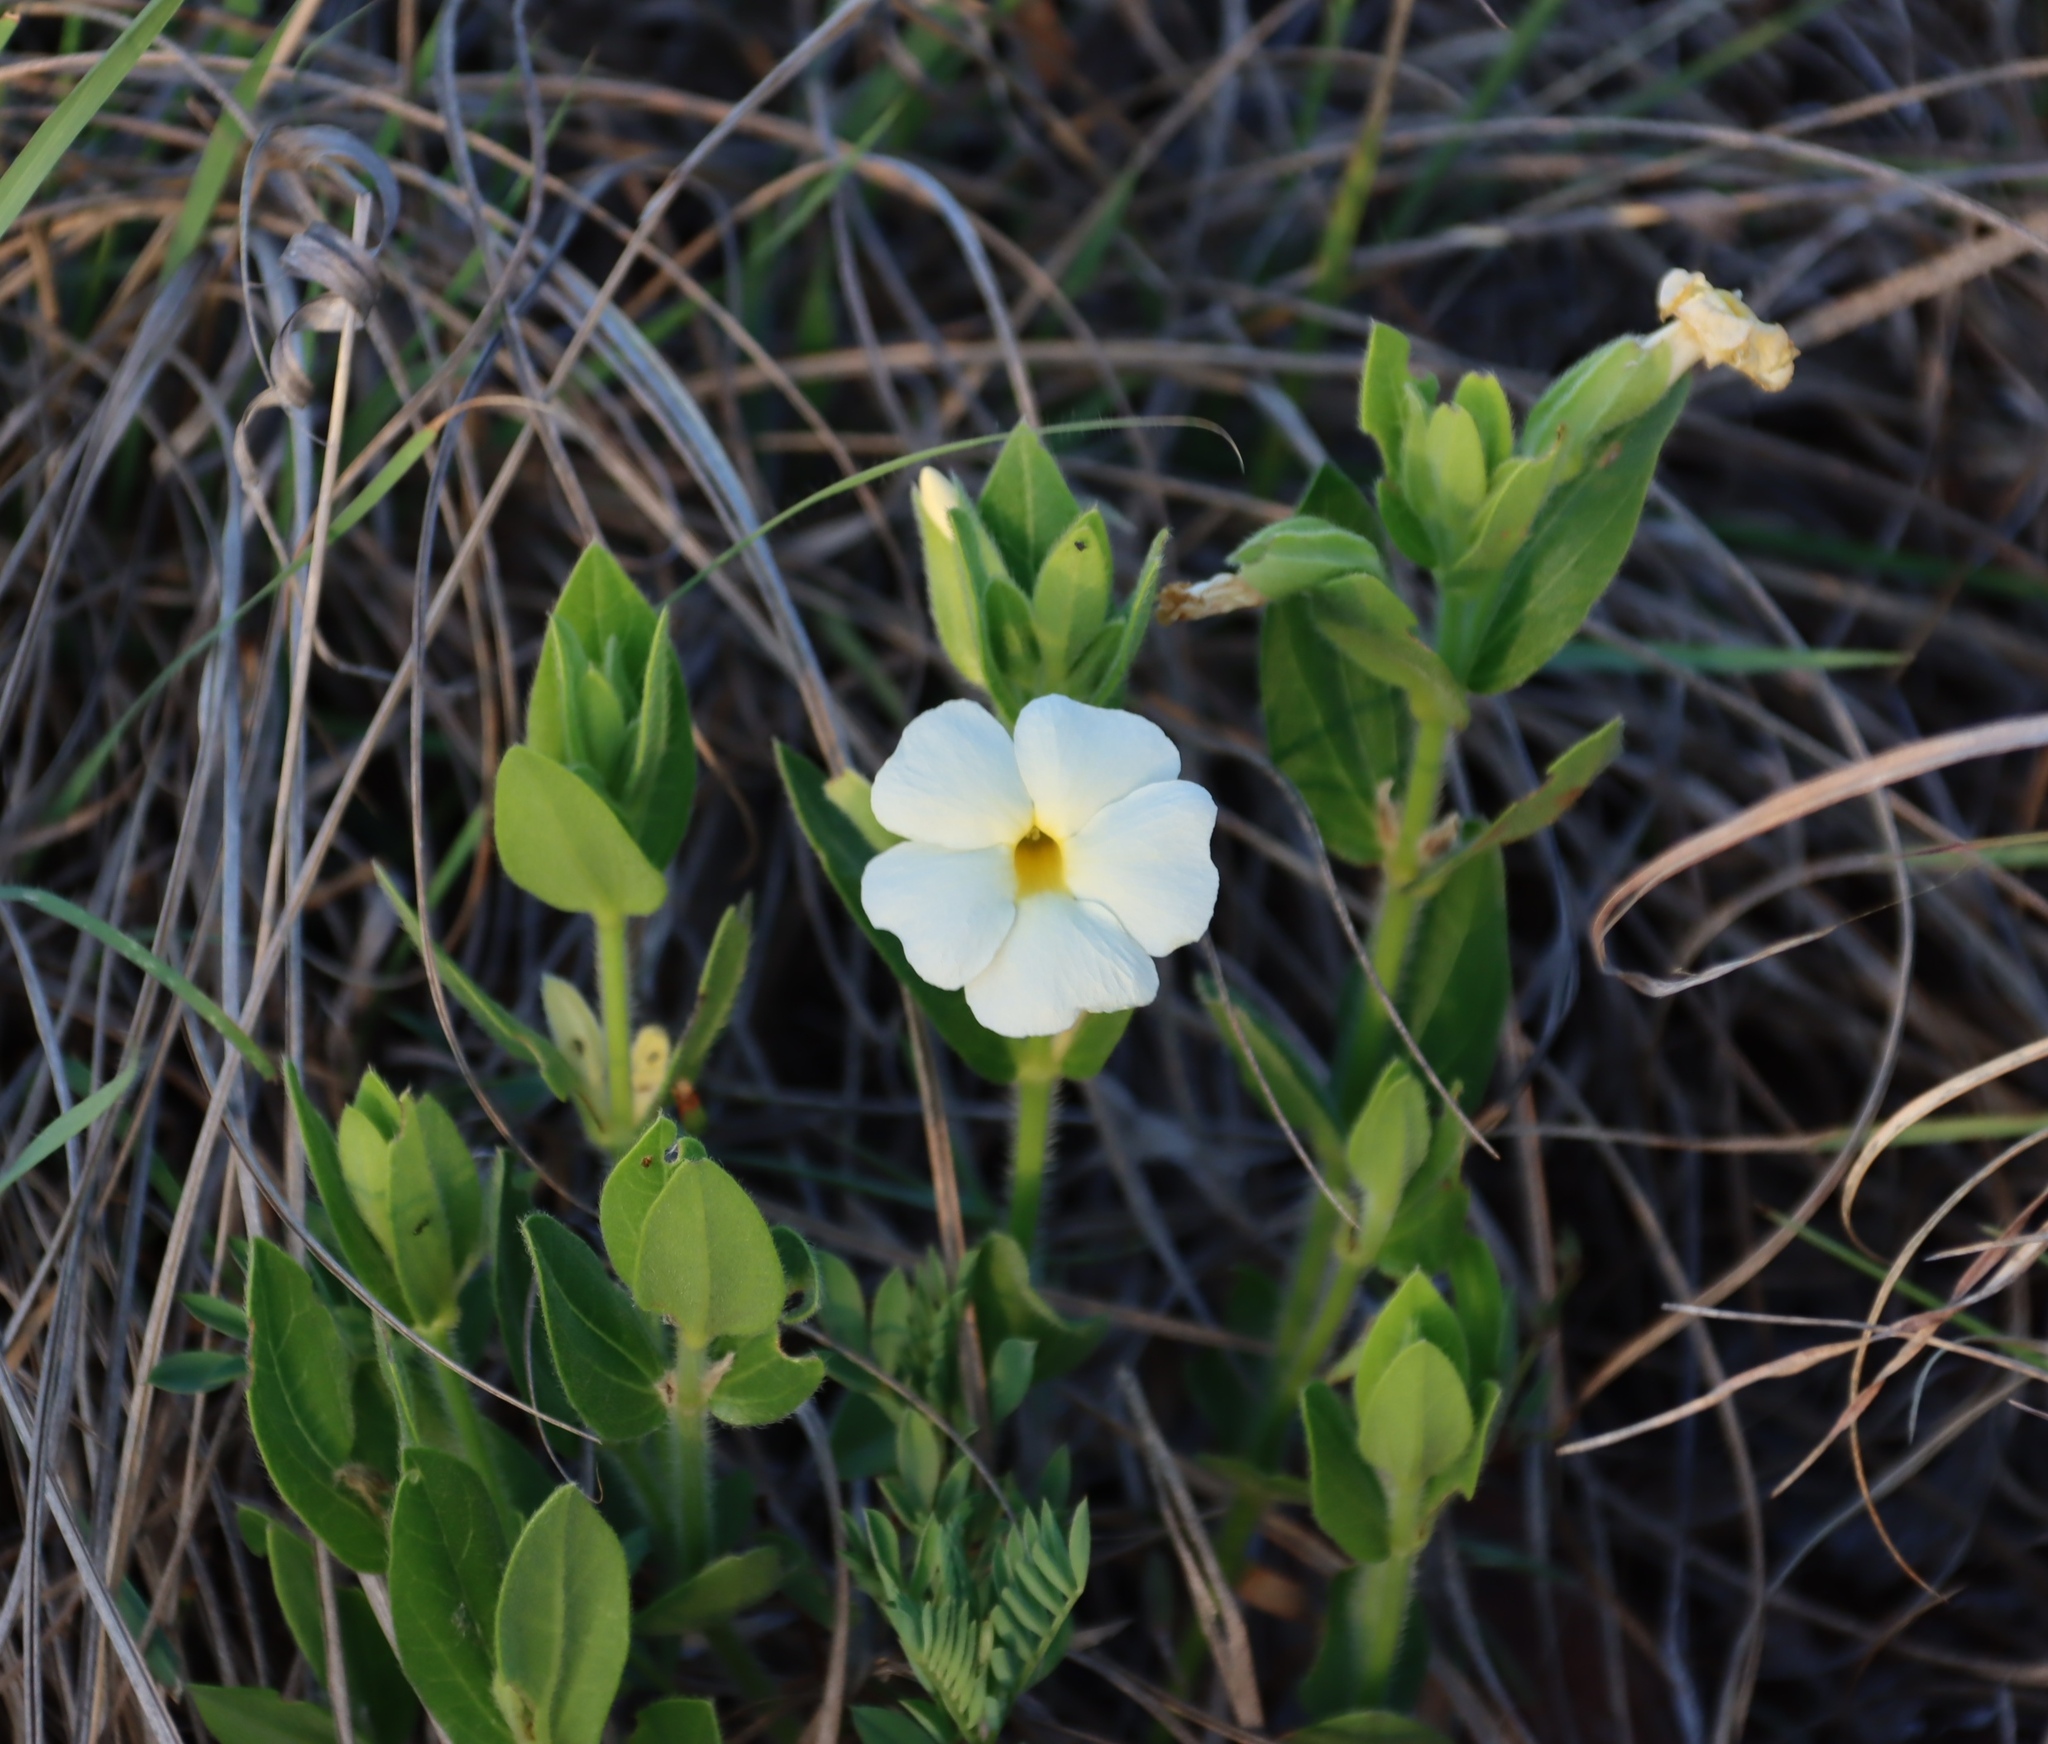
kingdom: Plantae
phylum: Tracheophyta
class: Magnoliopsida
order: Lamiales
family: Acanthaceae
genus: Thunbergia
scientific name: Thunbergia atriplicifolia
